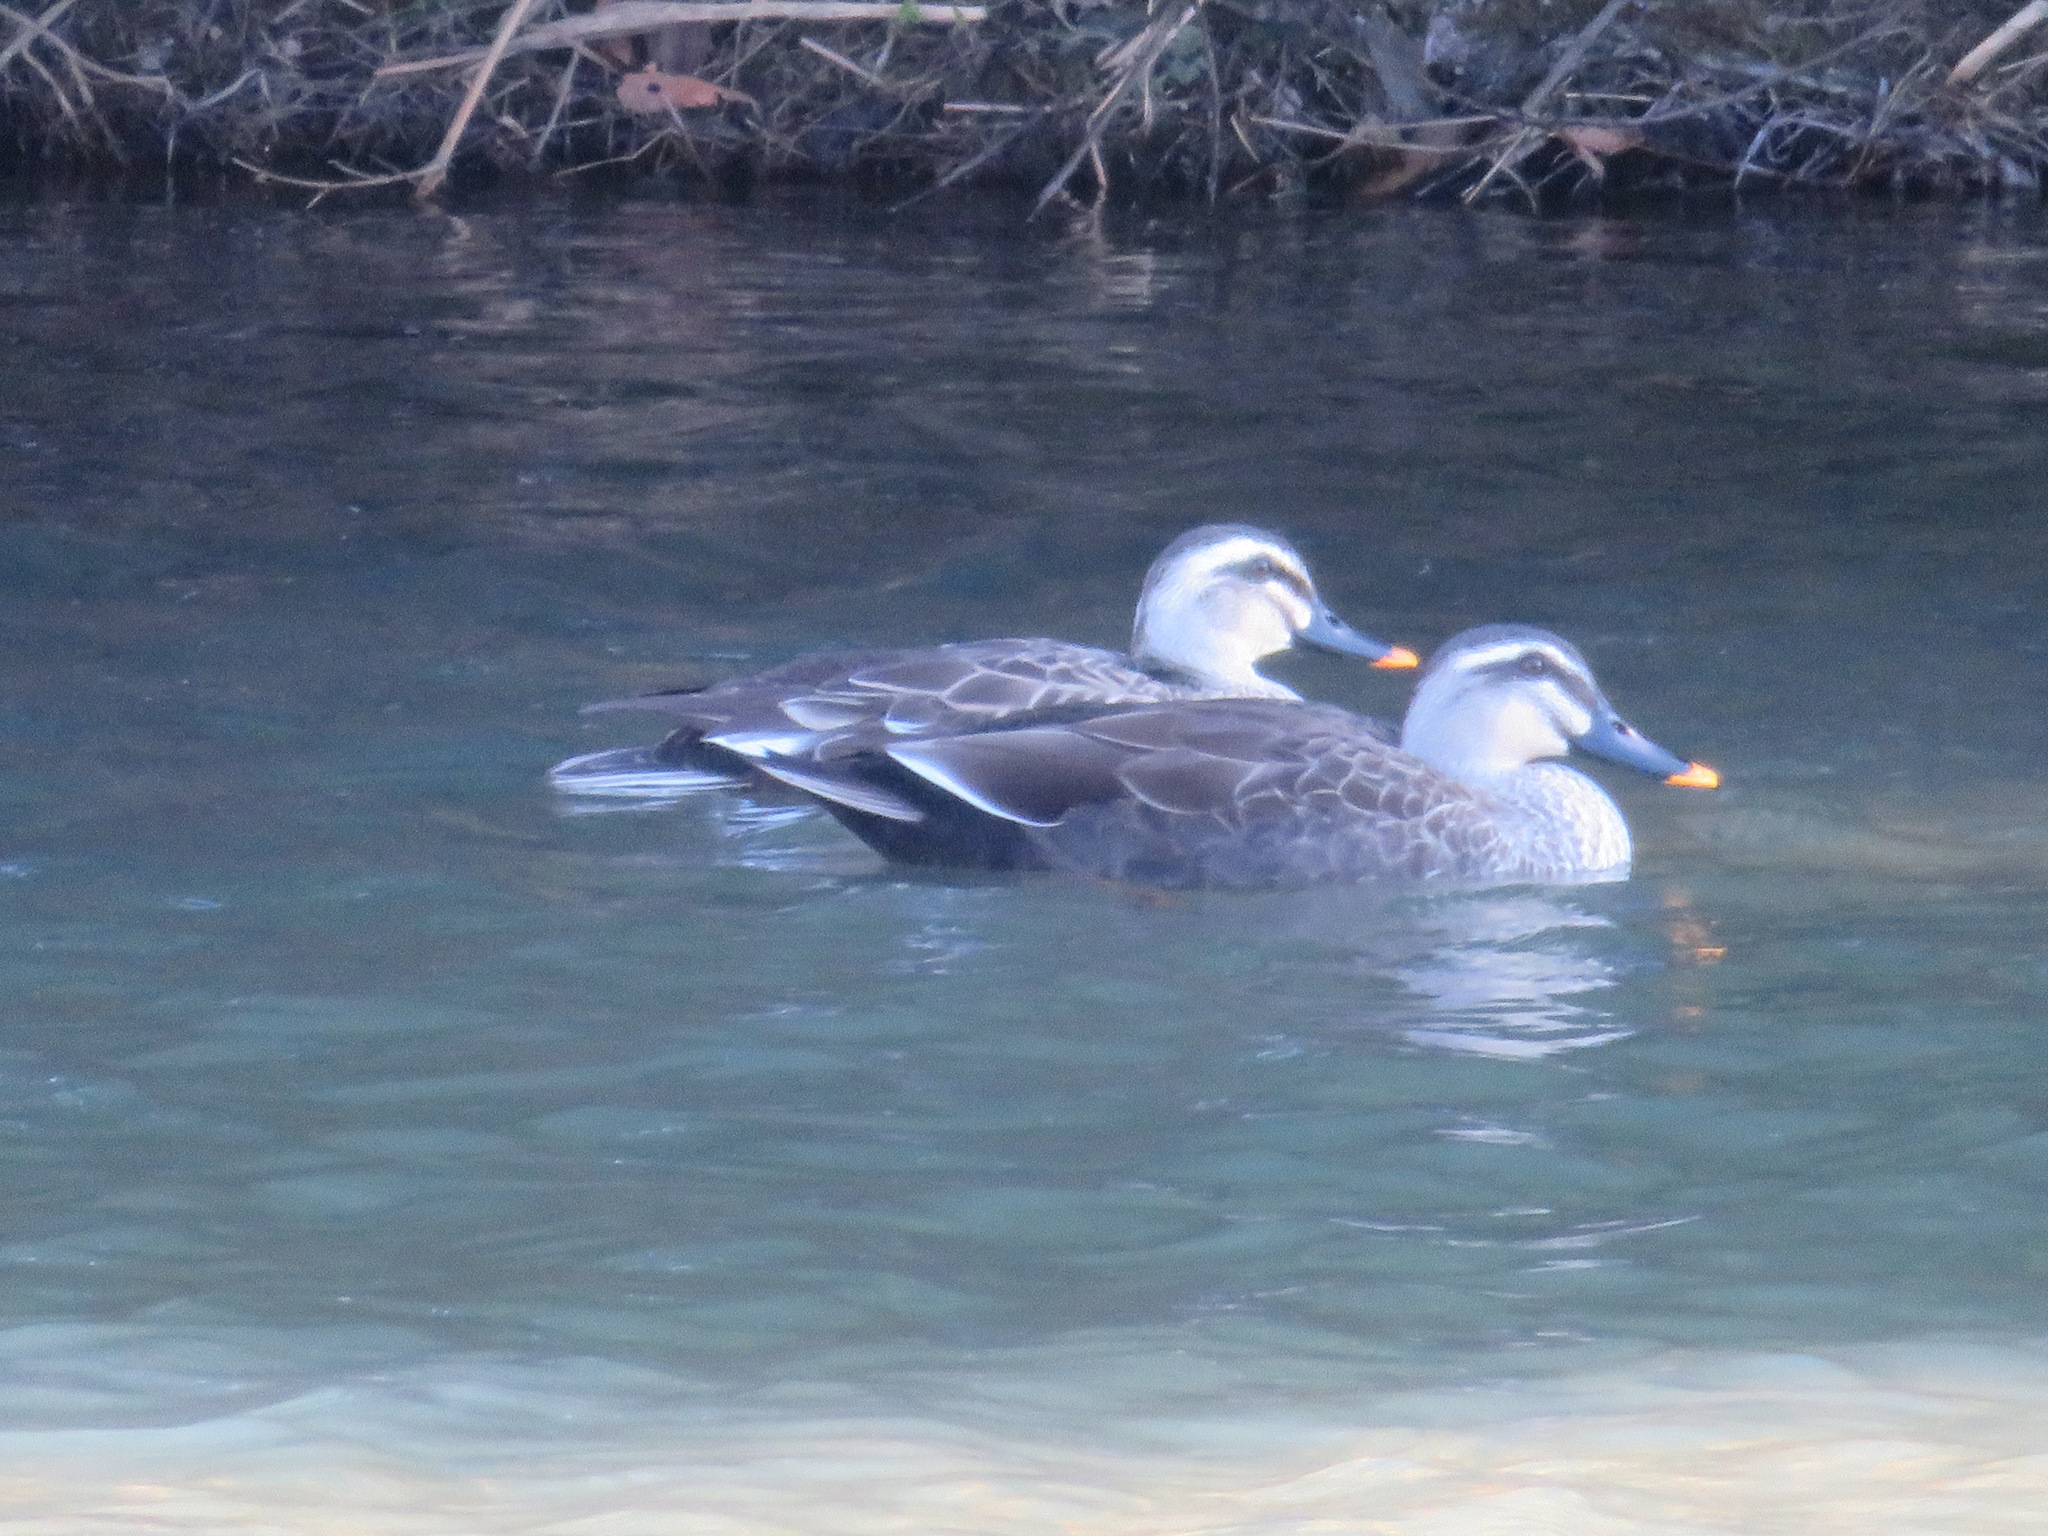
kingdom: Animalia
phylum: Chordata
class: Aves
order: Anseriformes
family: Anatidae
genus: Anas
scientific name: Anas zonorhyncha
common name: Eastern spot-billed duck
